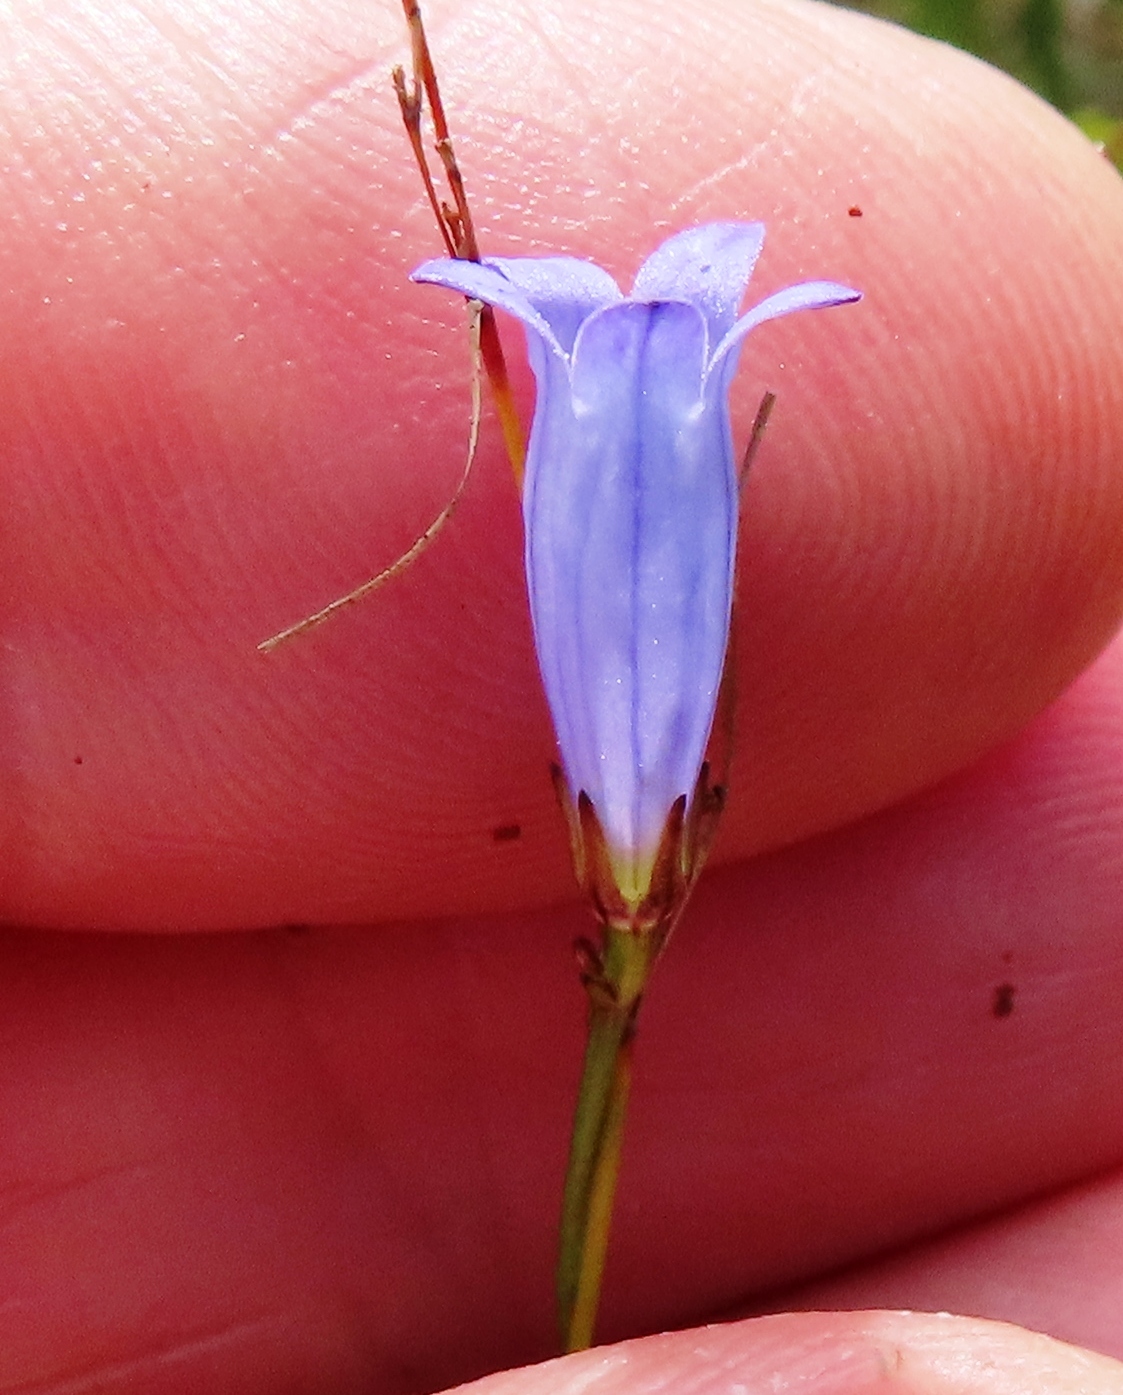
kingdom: Plantae
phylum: Tracheophyta
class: Magnoliopsida
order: Asterales
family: Campanulaceae
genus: Siphocodon
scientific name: Siphocodon spartioides
